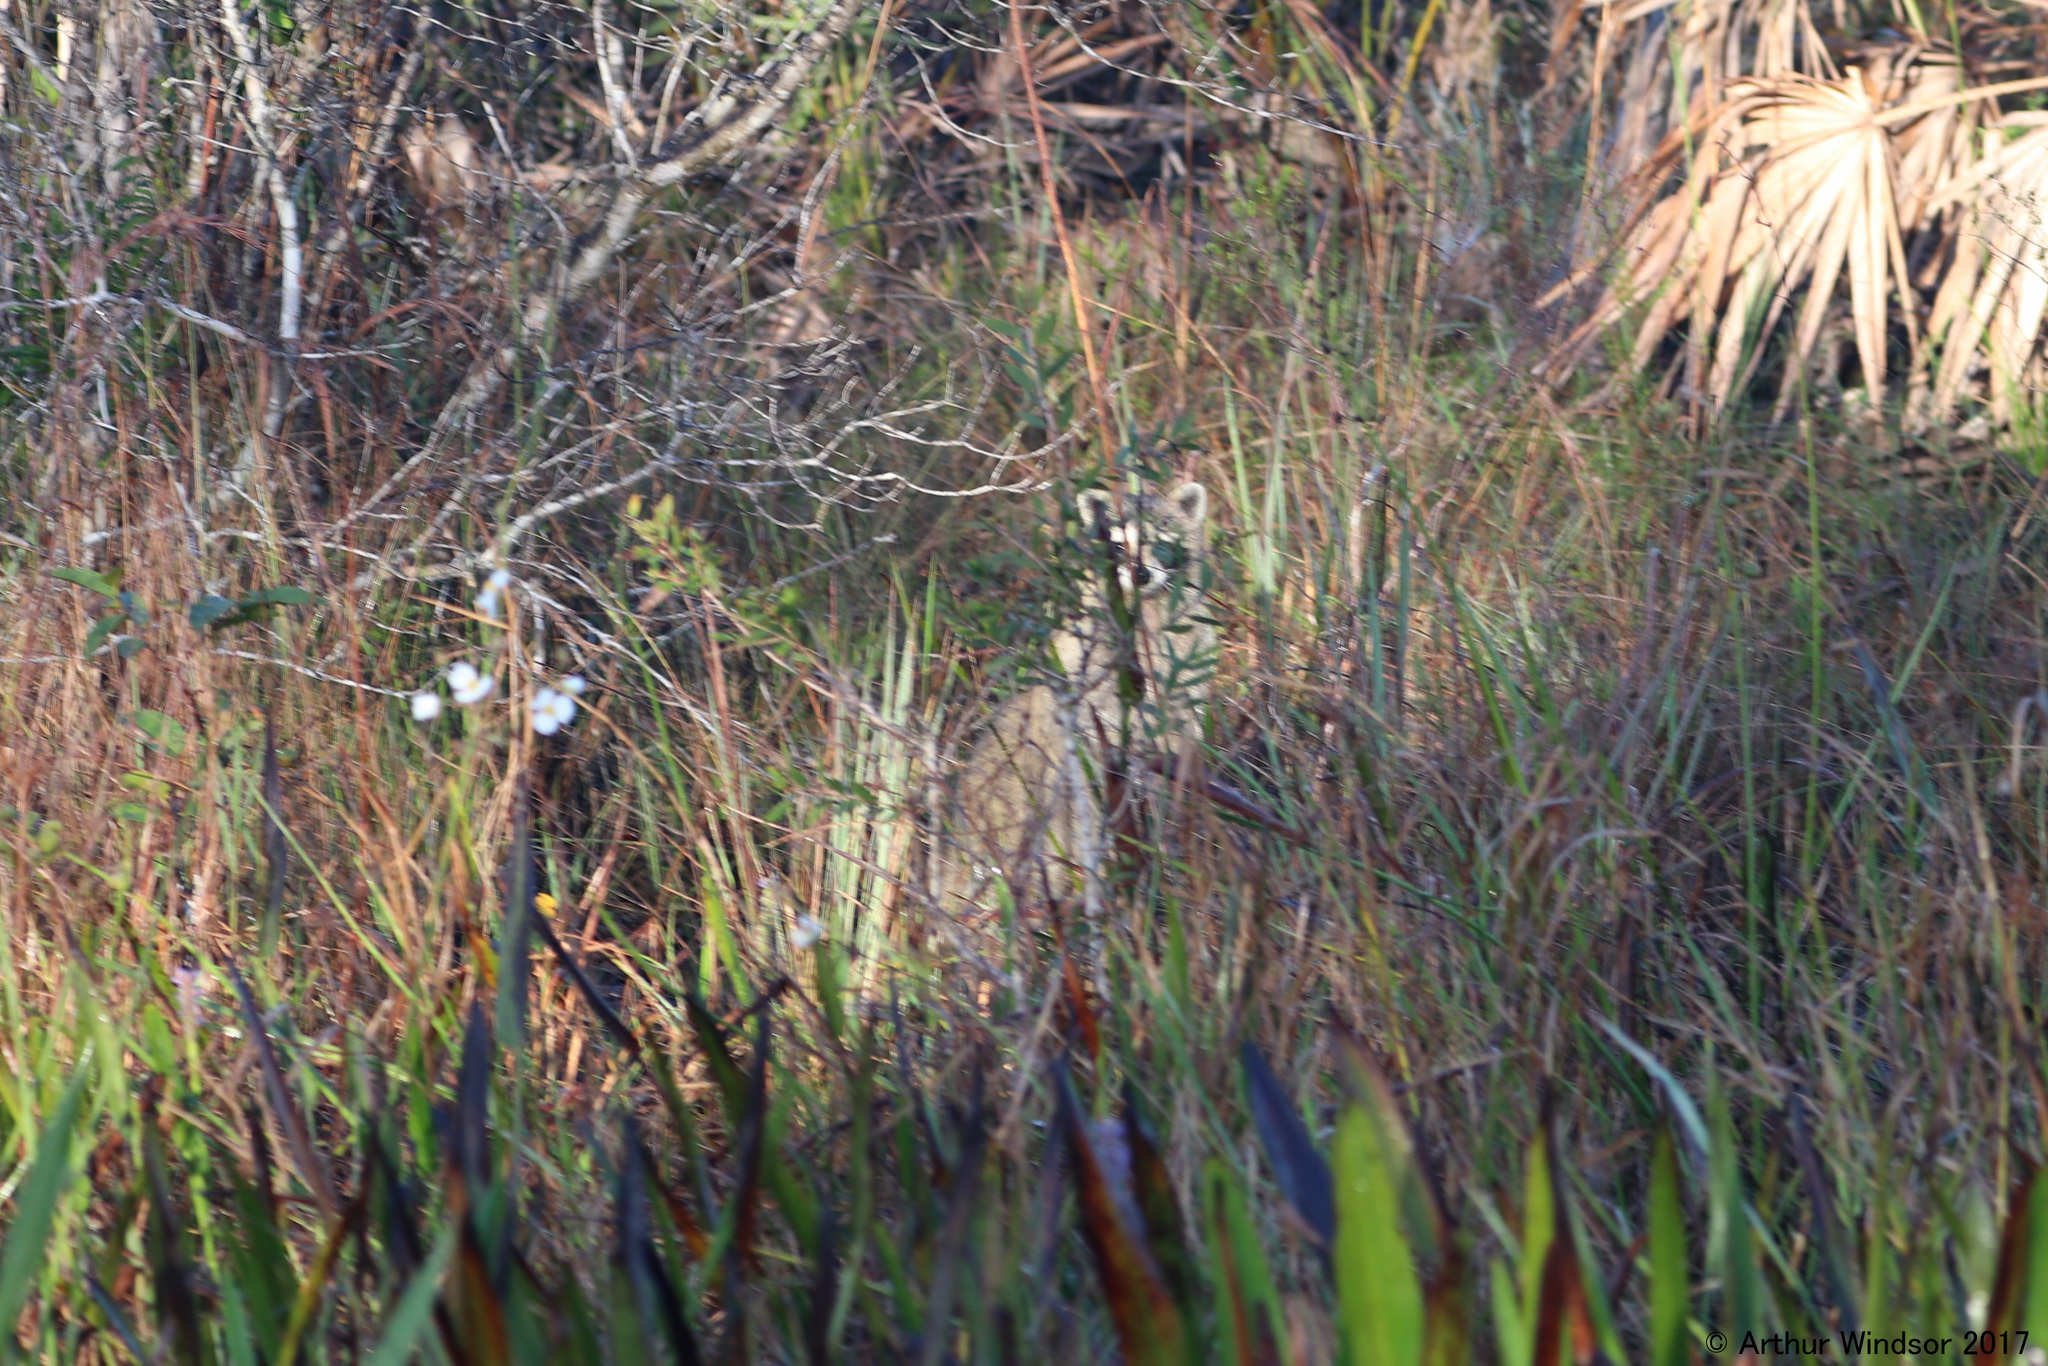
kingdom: Animalia
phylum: Chordata
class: Mammalia
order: Carnivora
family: Procyonidae
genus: Procyon
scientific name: Procyon lotor
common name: Raccoon
